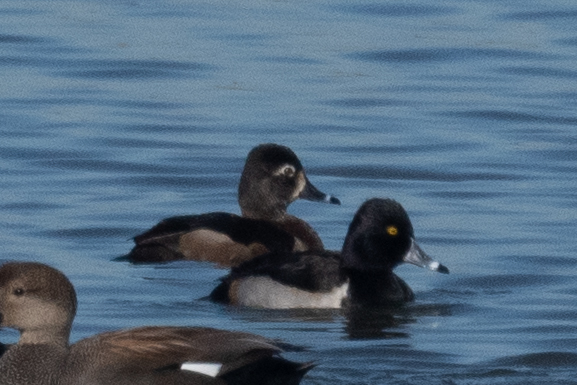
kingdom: Animalia
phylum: Chordata
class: Aves
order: Anseriformes
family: Anatidae
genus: Aythya
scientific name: Aythya collaris
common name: Ring-necked duck
